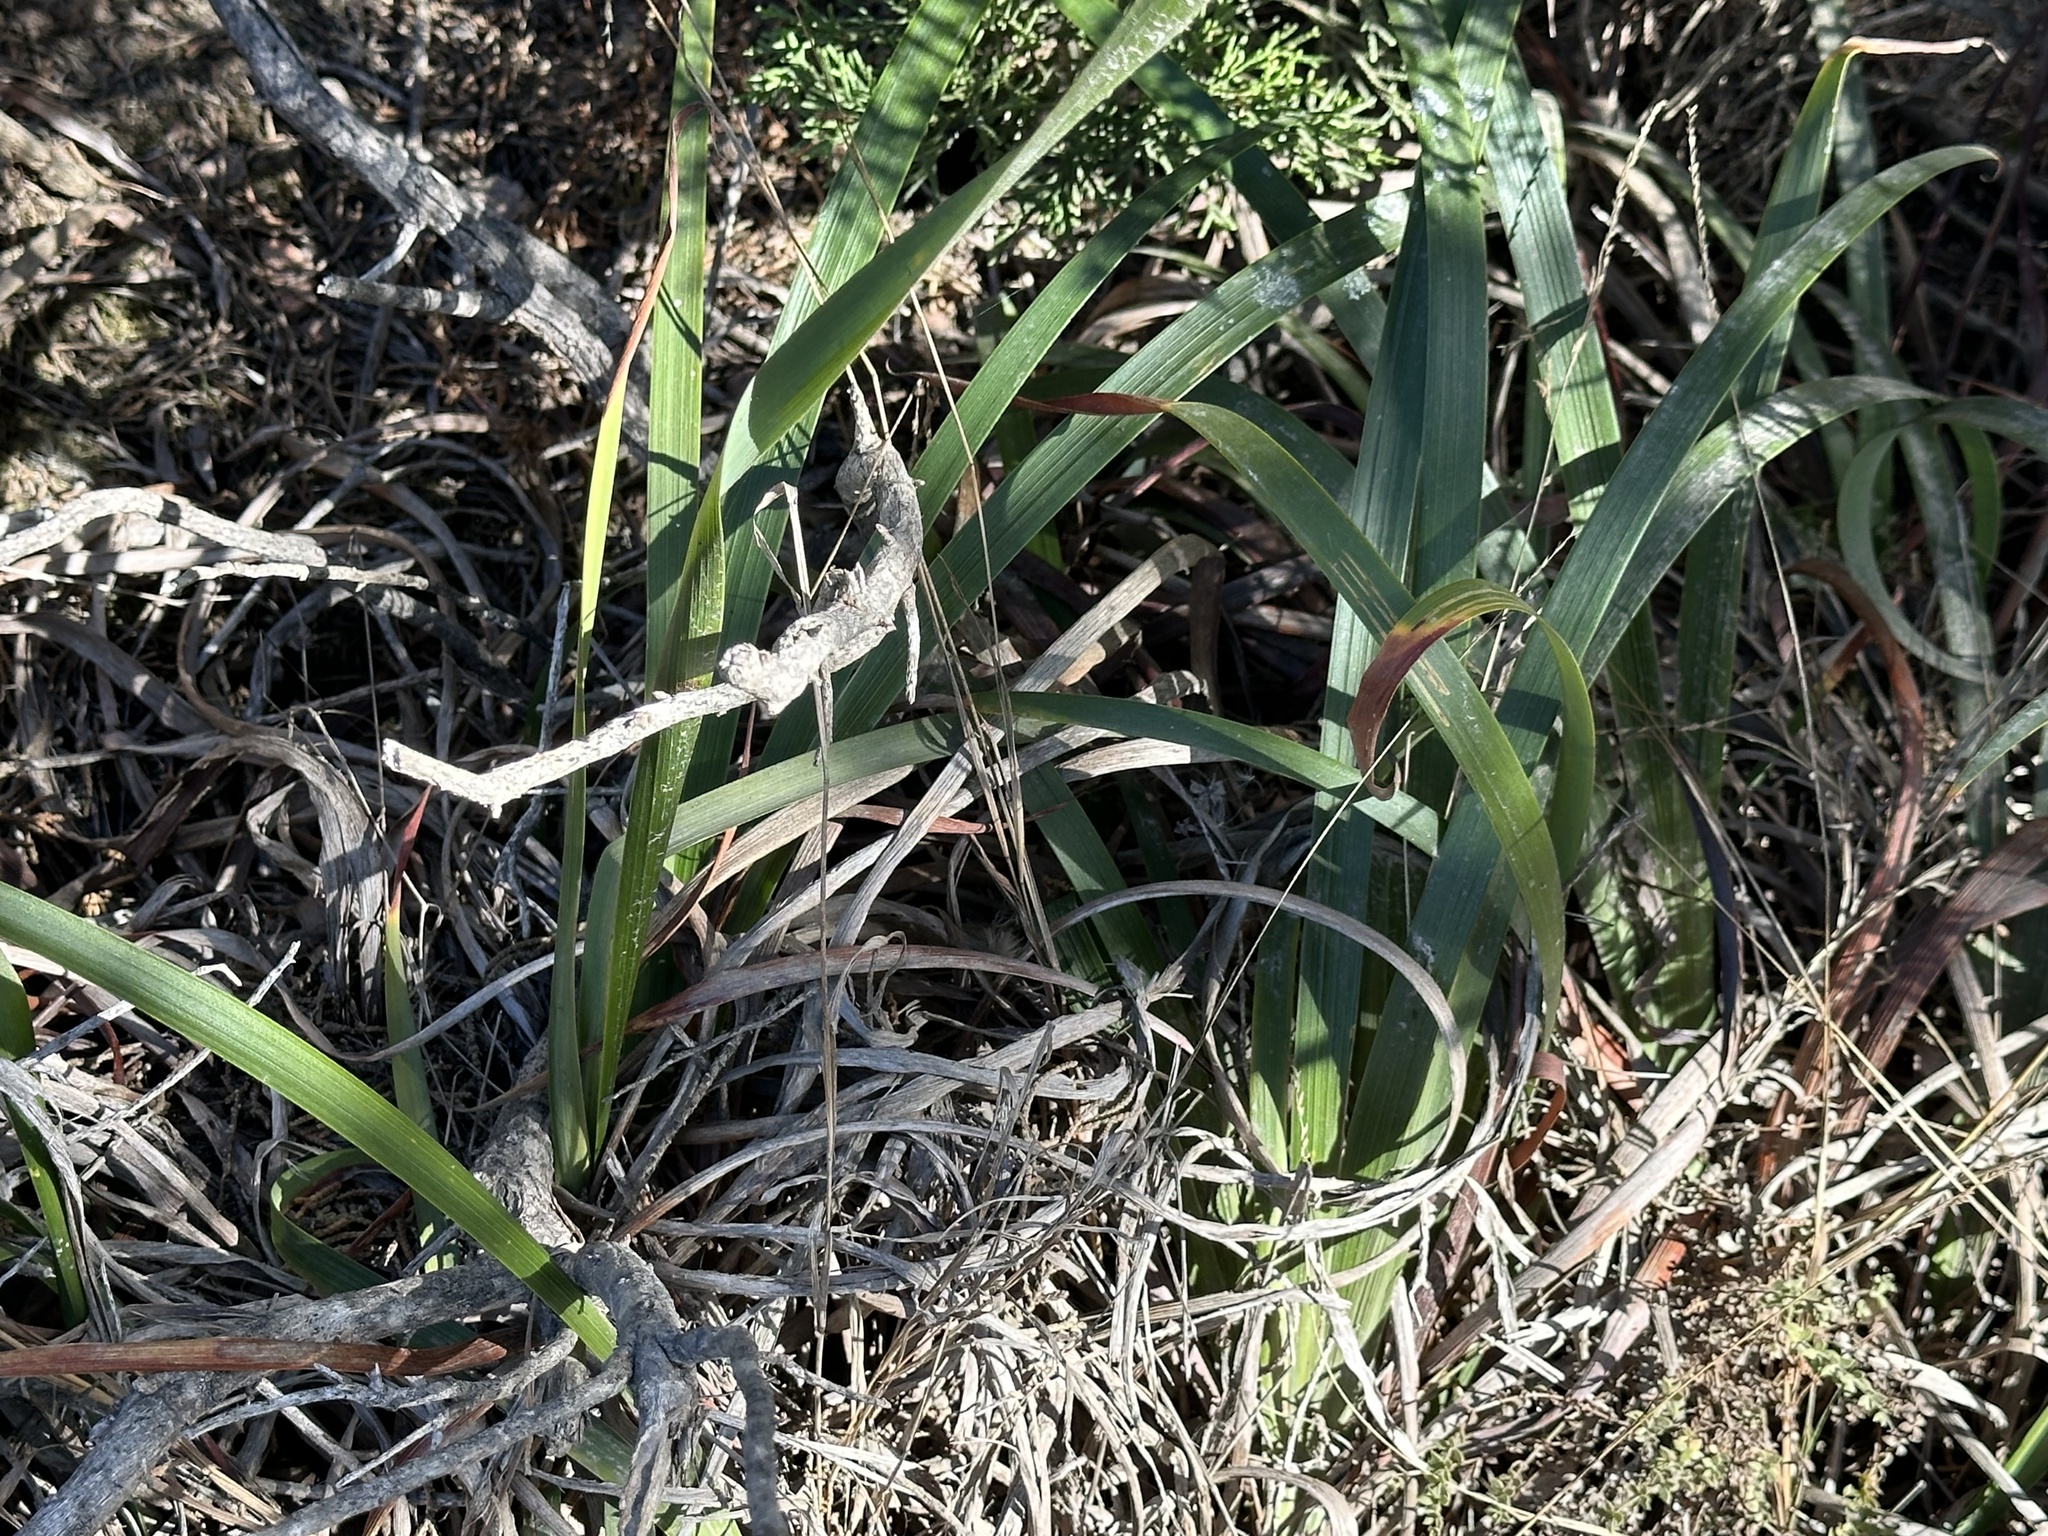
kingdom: Plantae
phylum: Tracheophyta
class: Liliopsida
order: Asparagales
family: Iridaceae
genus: Iris
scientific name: Iris douglasiana
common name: Marin iris
